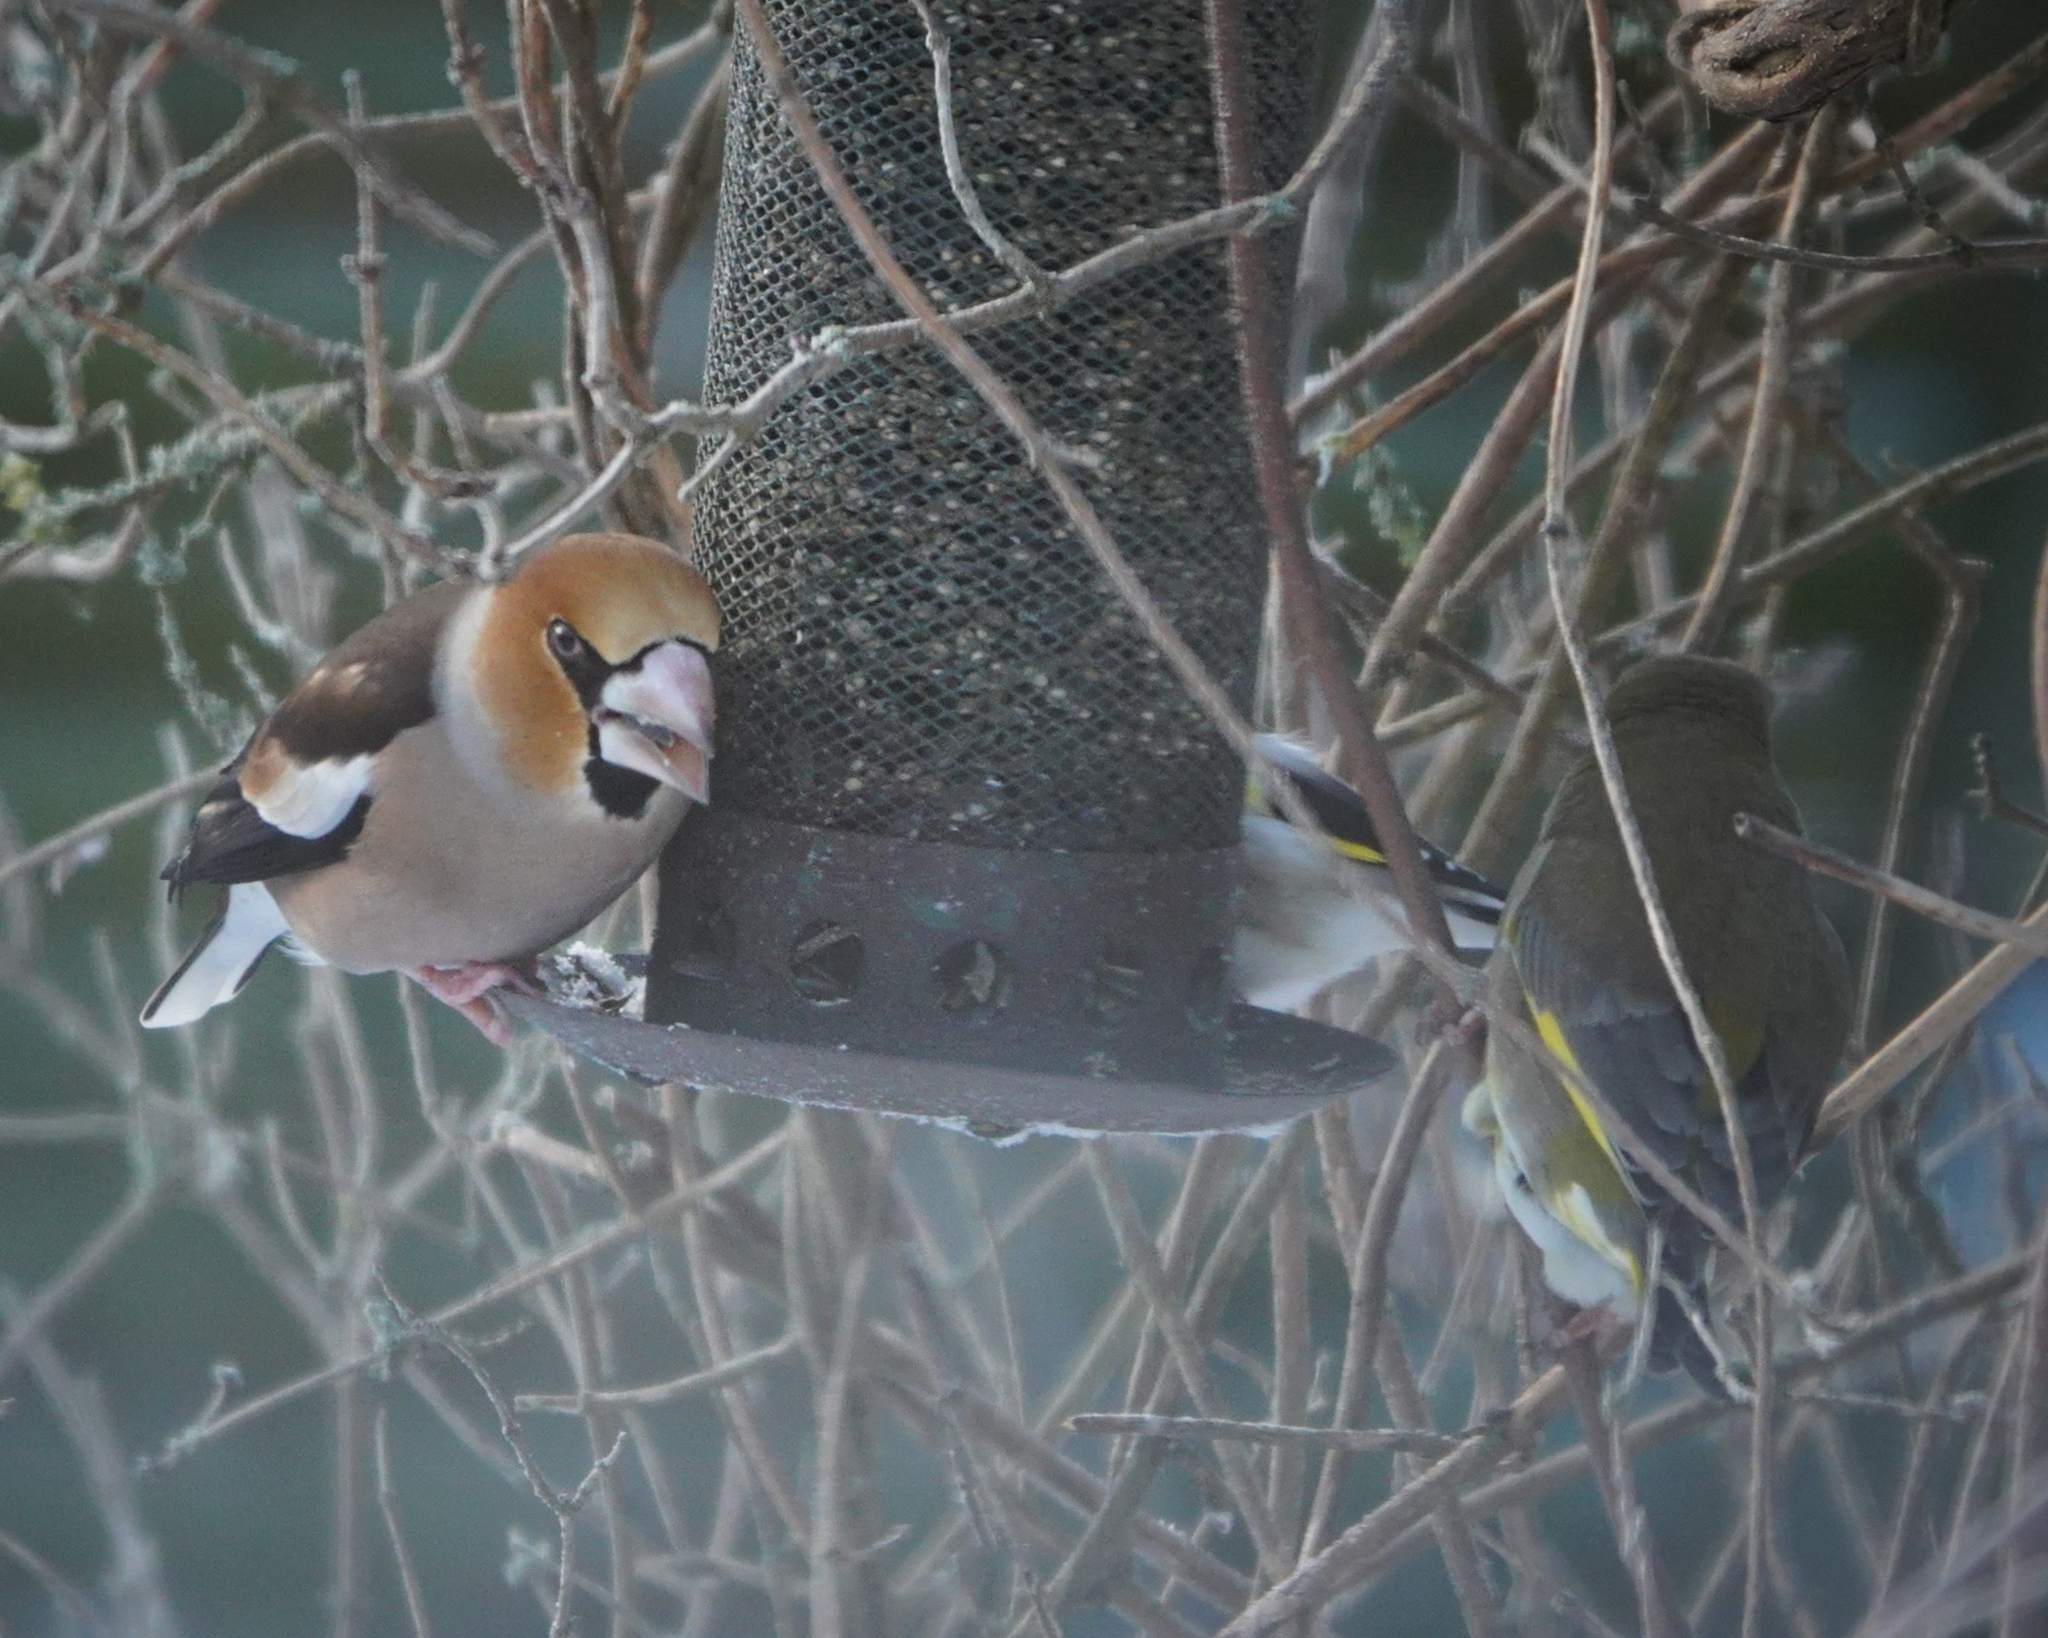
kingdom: Animalia
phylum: Chordata
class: Aves
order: Passeriformes
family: Fringillidae
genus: Coccothraustes
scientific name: Coccothraustes coccothraustes
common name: Hawfinch
